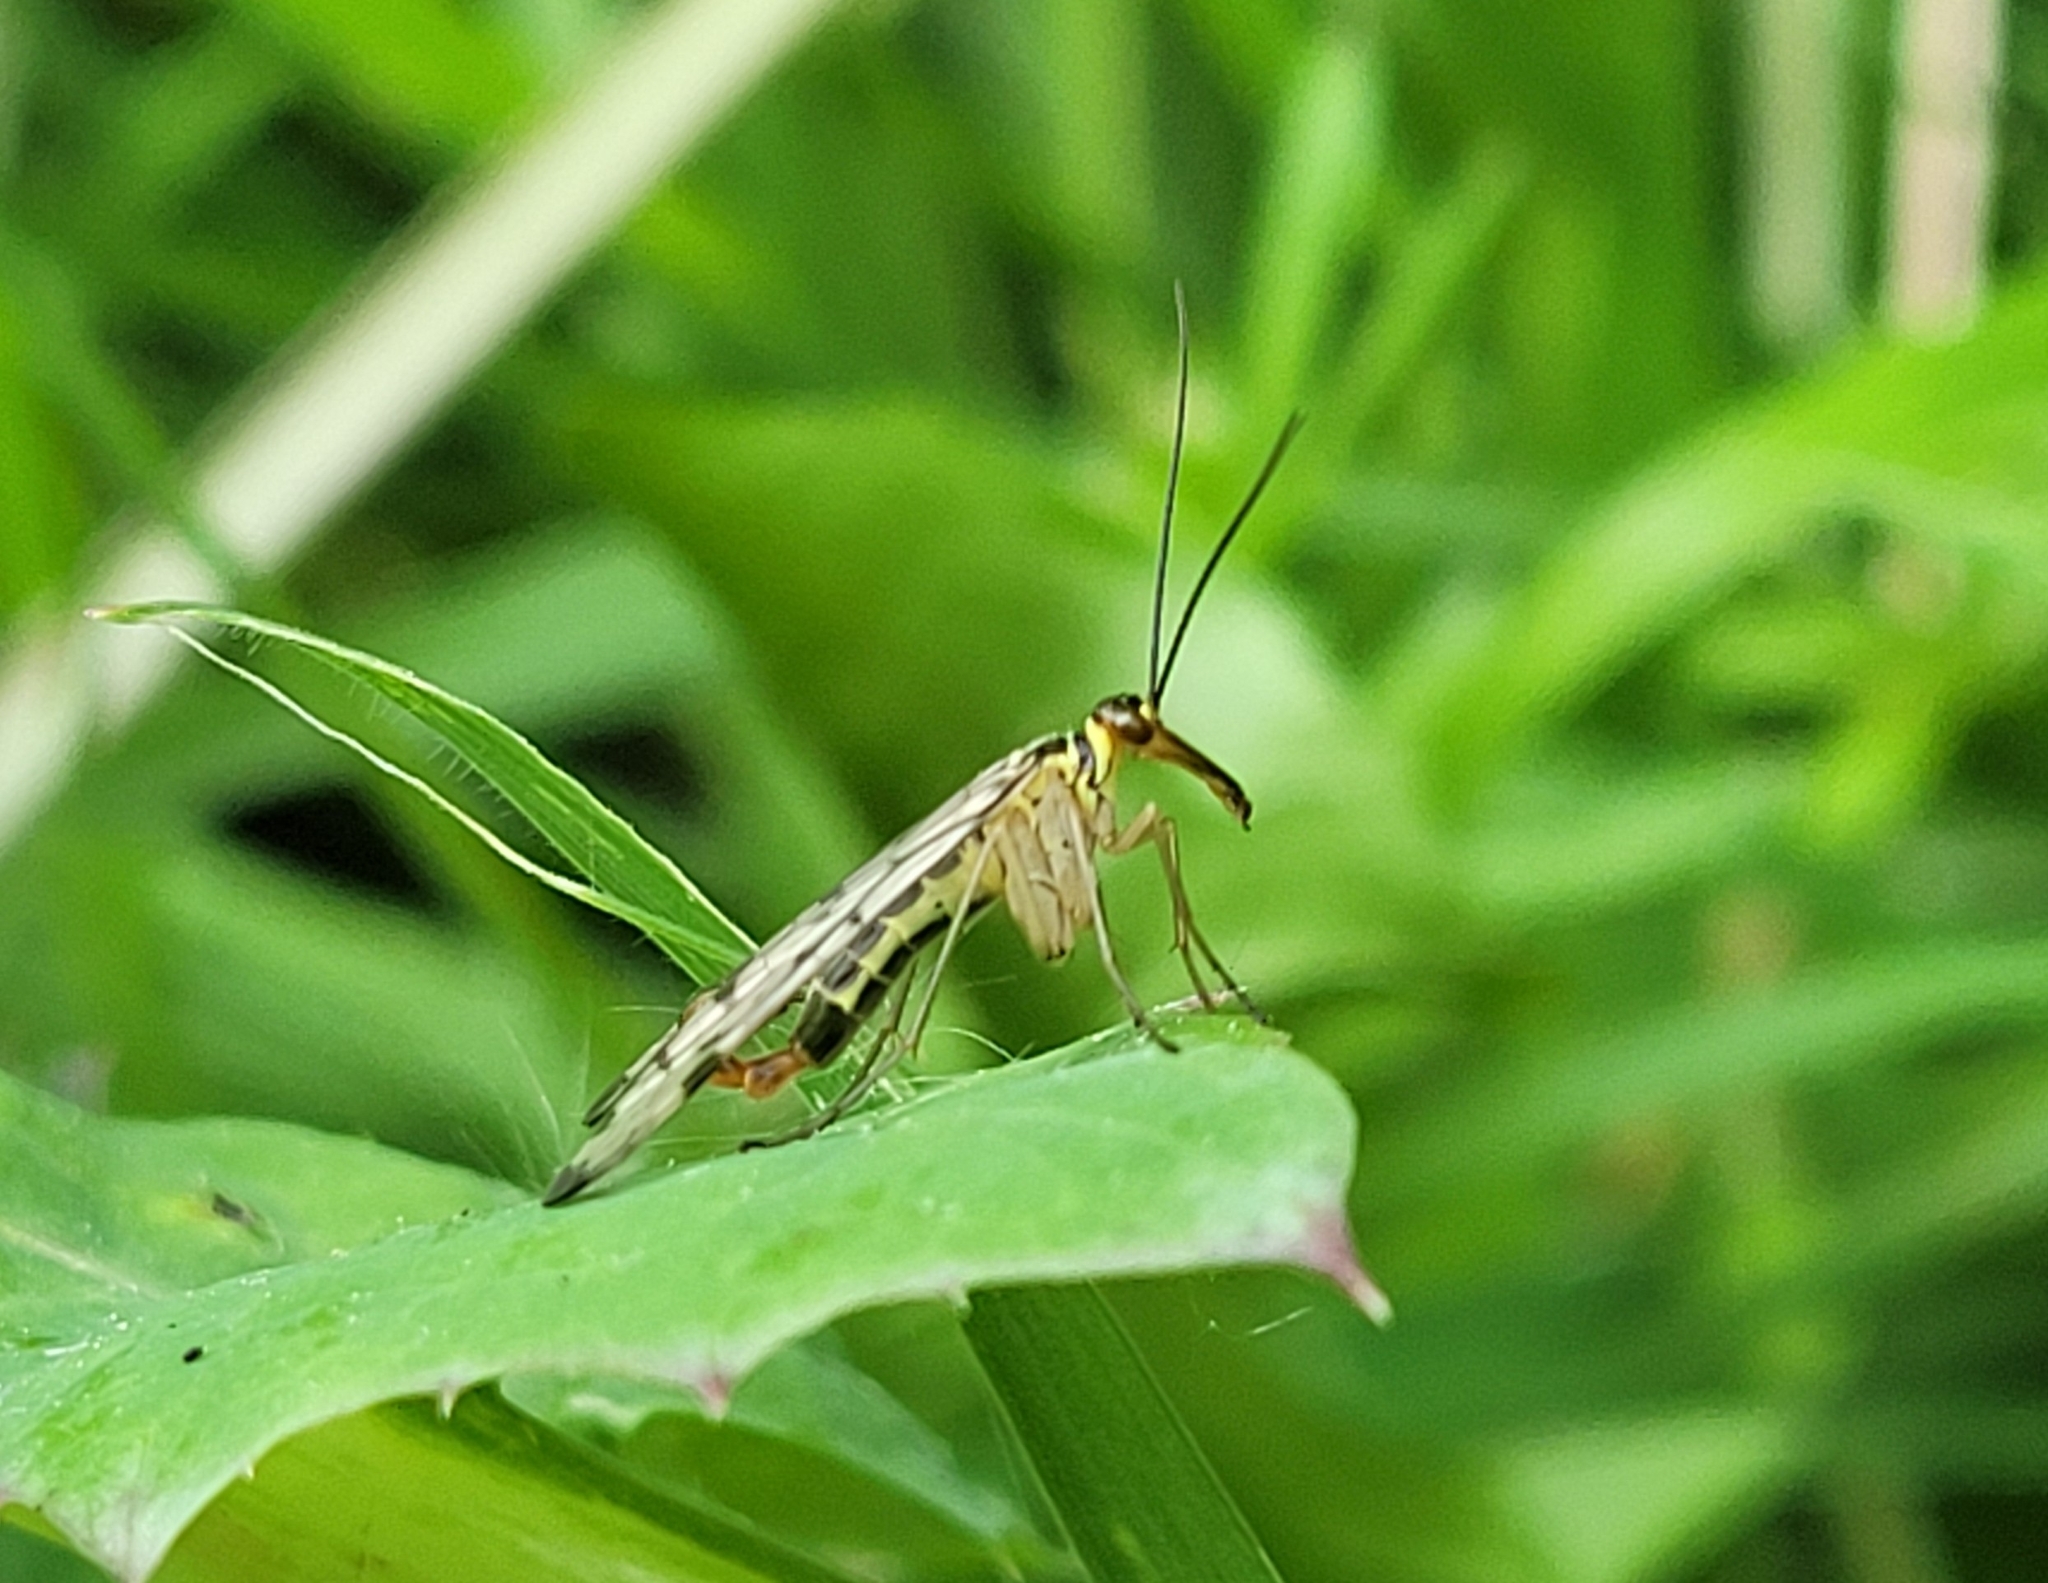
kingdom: Animalia
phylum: Arthropoda
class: Insecta
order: Mecoptera
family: Panorpidae
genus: Panorpa
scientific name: Panorpa germanica
